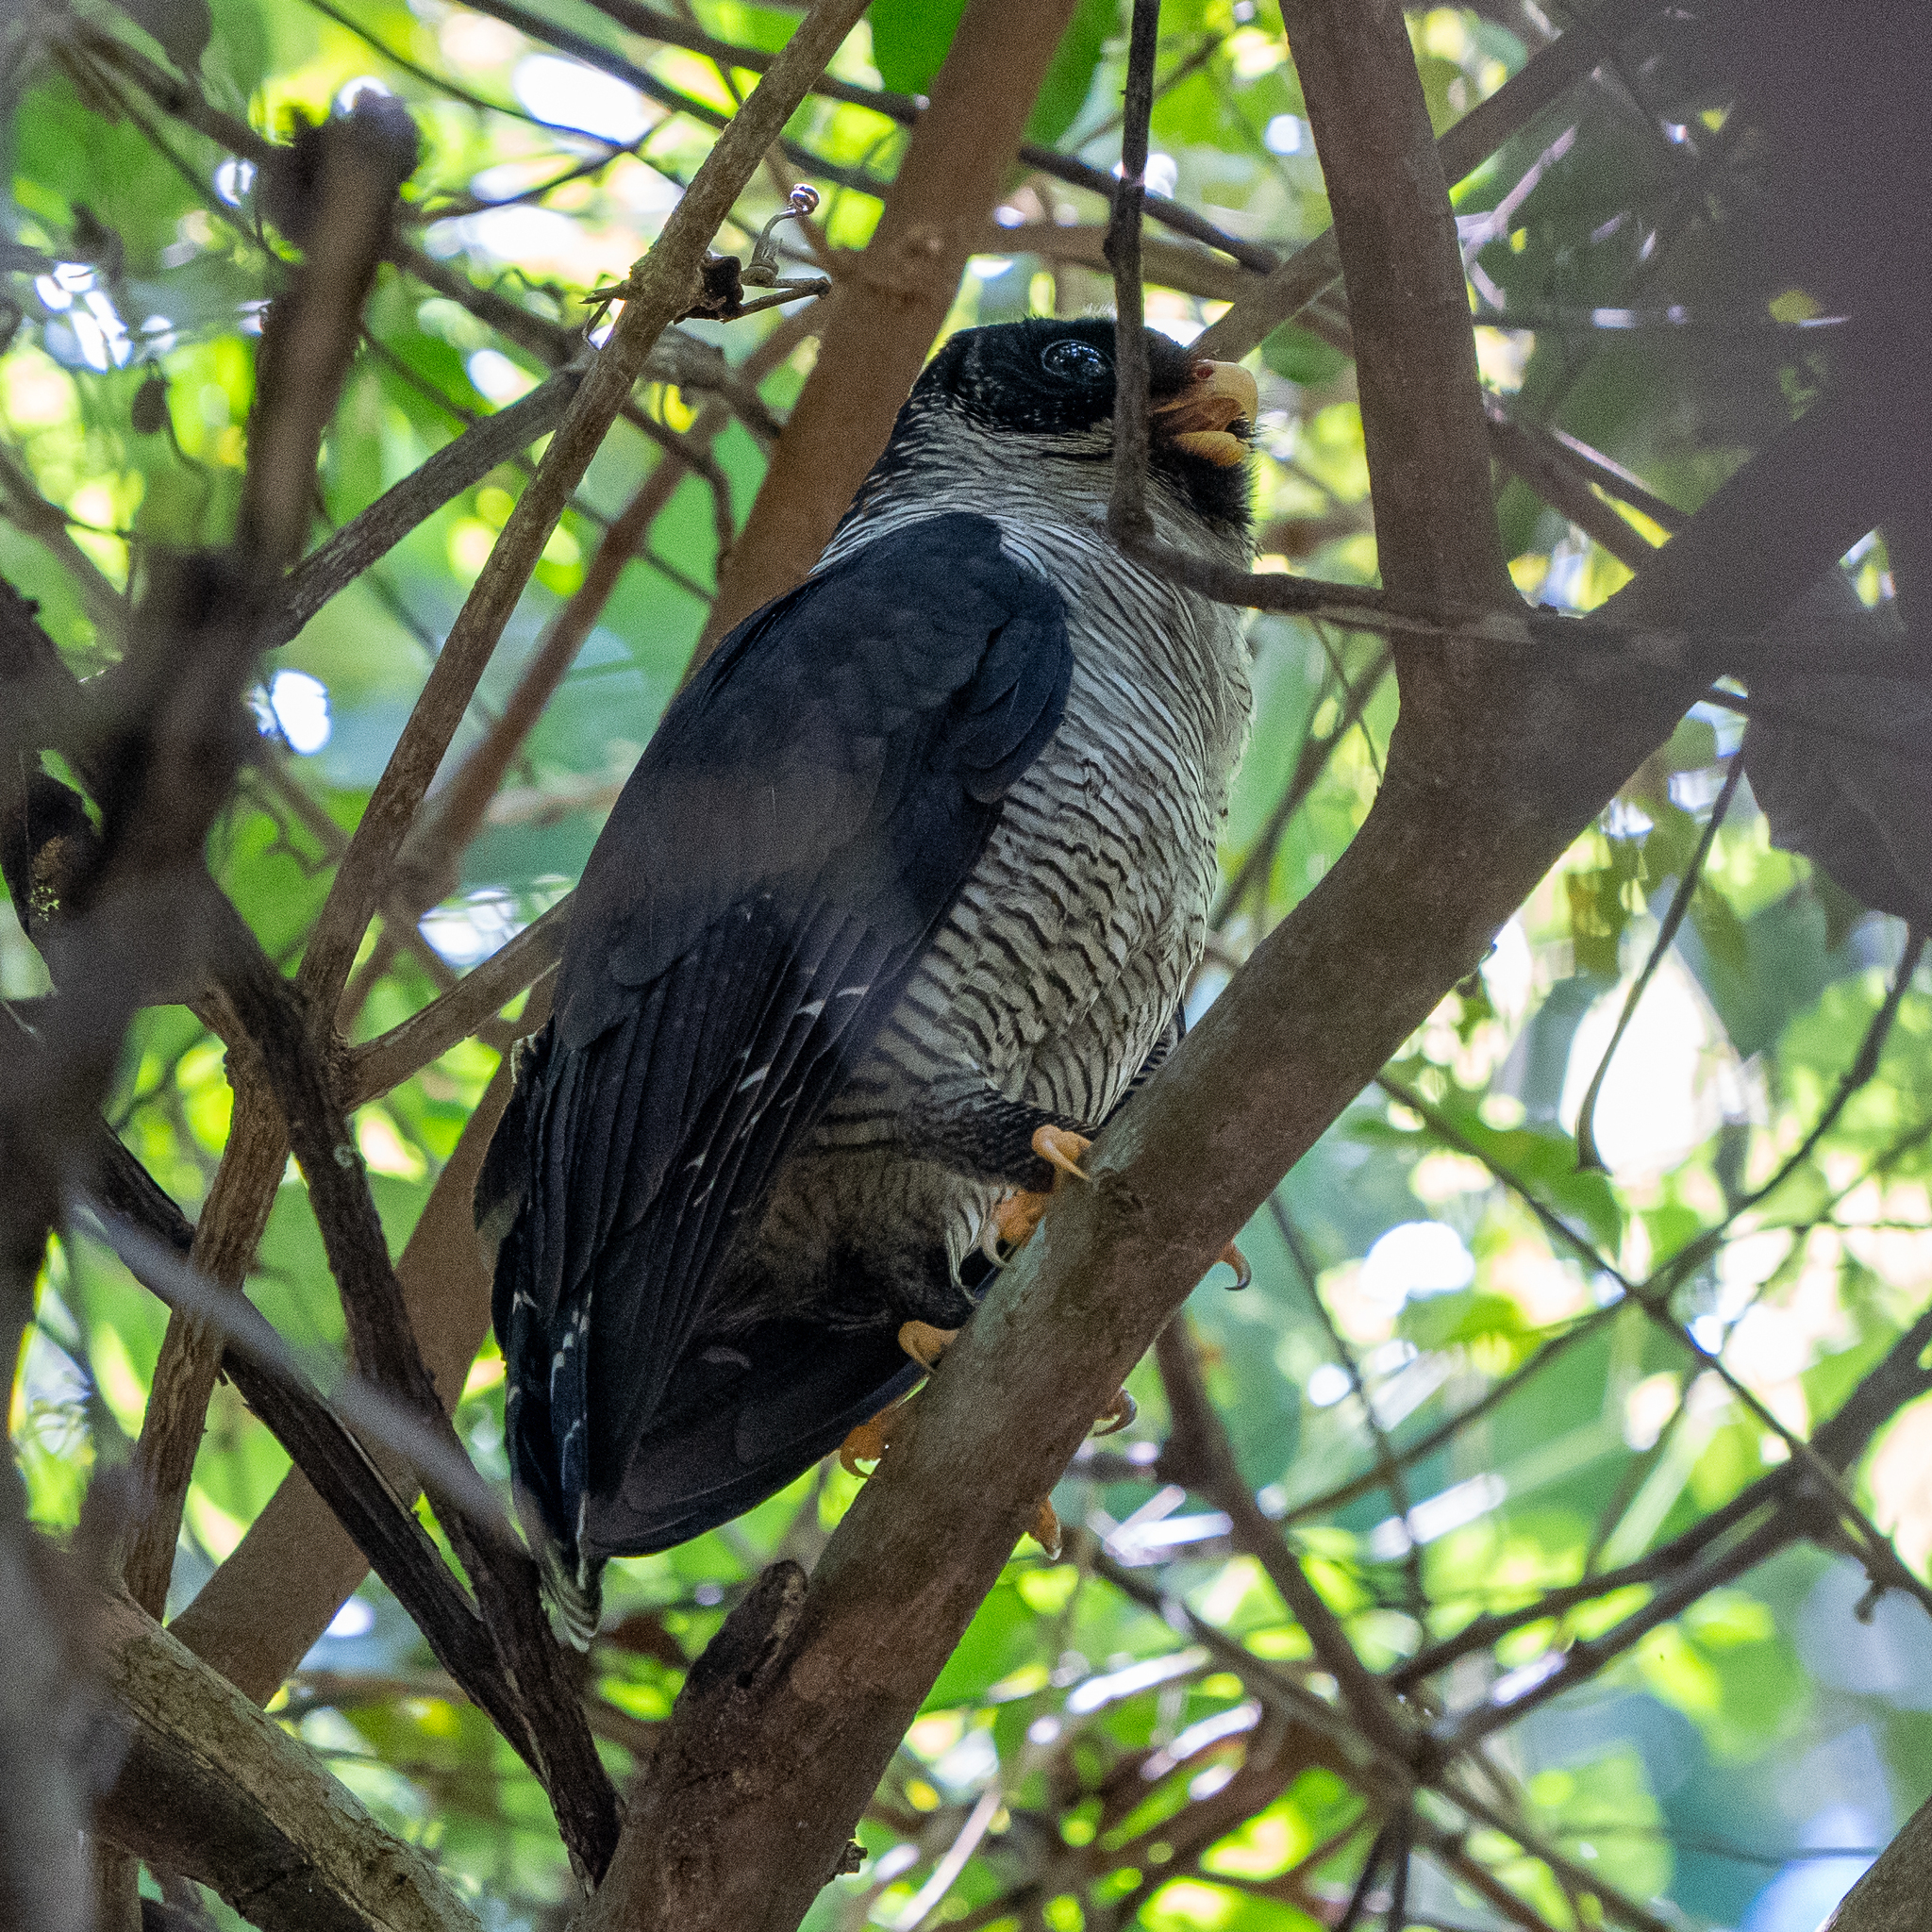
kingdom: Animalia
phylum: Chordata
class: Aves
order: Strigiformes
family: Strigidae
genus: Strix
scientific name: Strix nigrolineata
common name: Black-and-white owl
